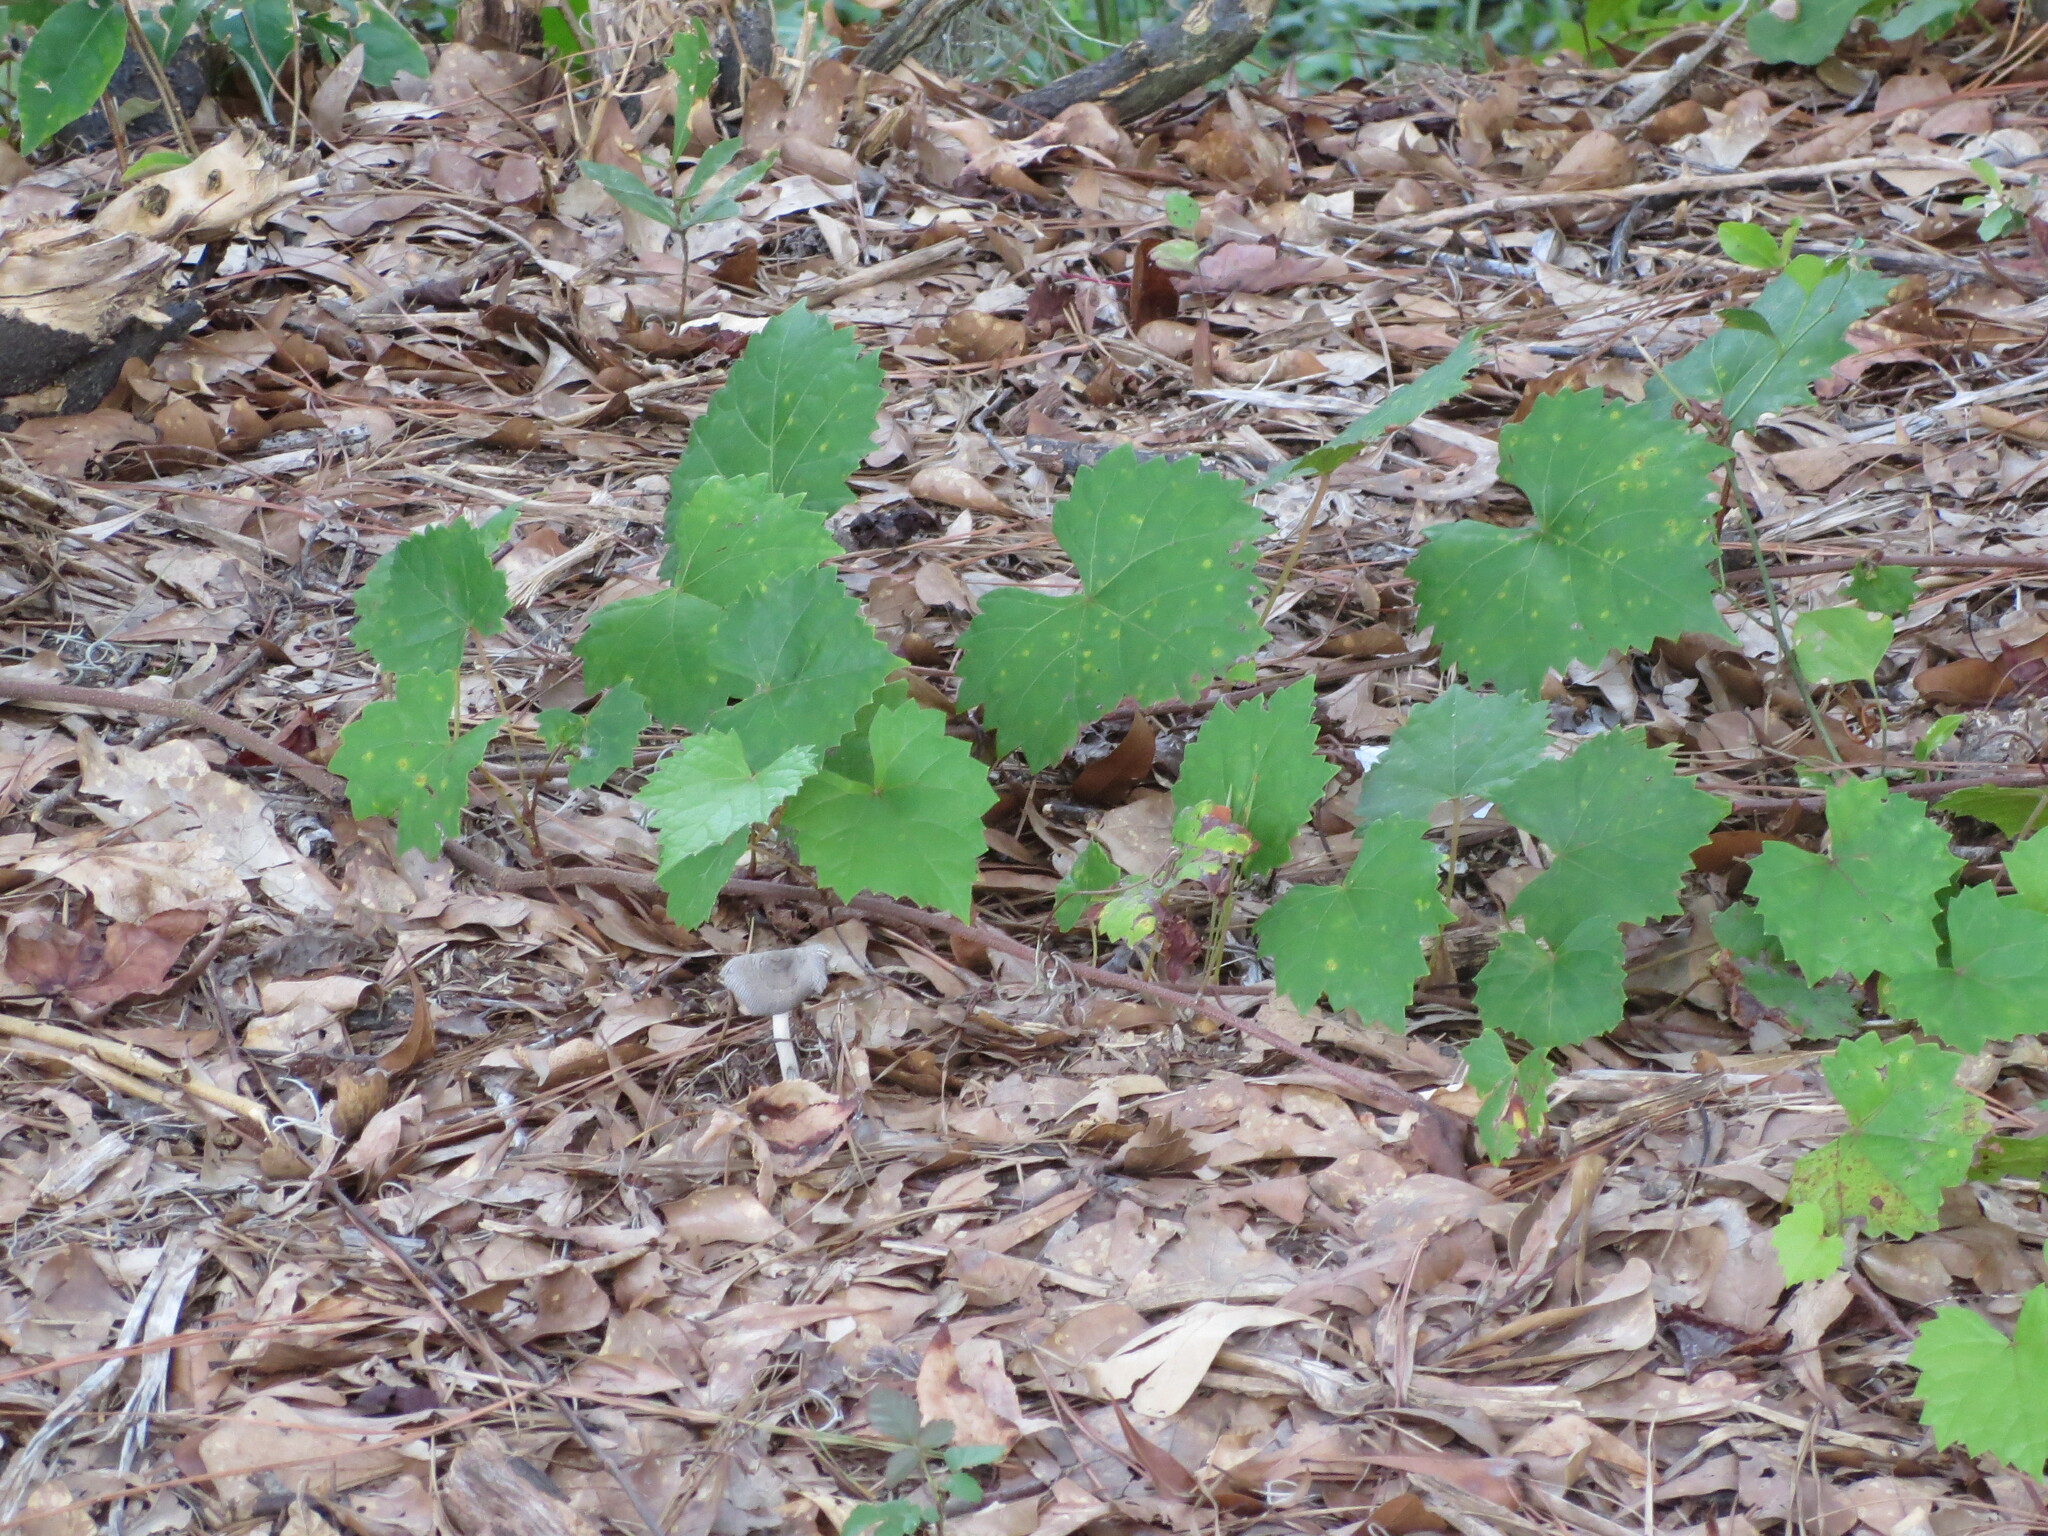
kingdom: Plantae
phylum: Tracheophyta
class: Magnoliopsida
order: Vitales
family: Vitaceae
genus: Vitis
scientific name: Vitis rotundifolia
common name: Muscadine grape
